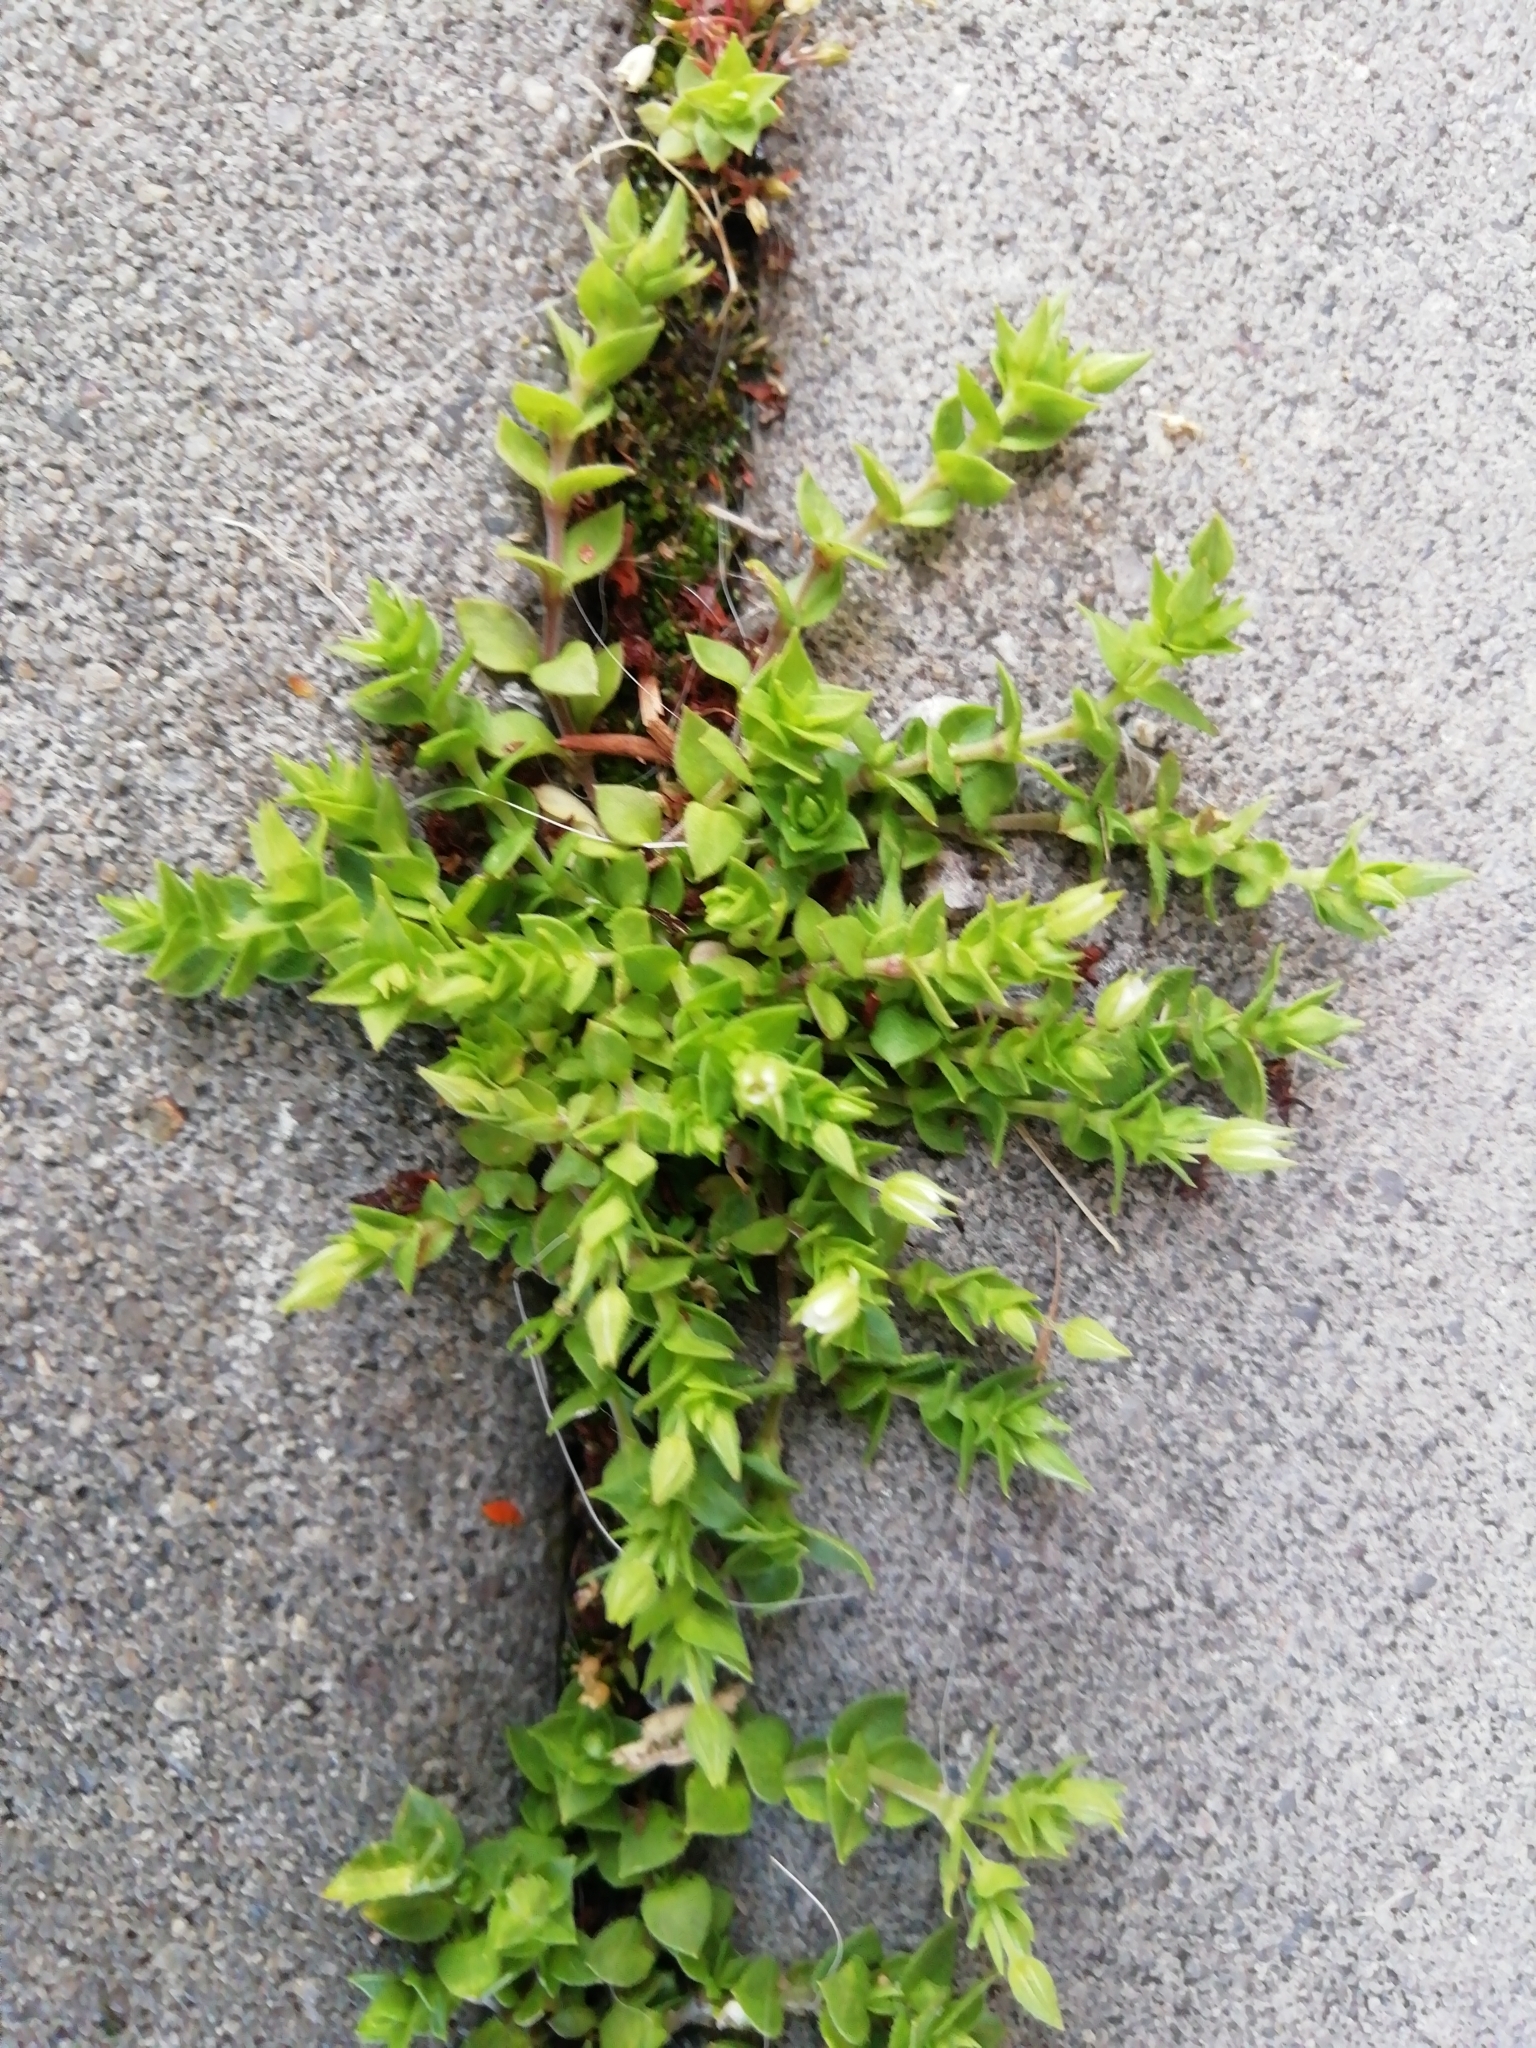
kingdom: Plantae
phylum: Tracheophyta
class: Magnoliopsida
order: Caryophyllales
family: Caryophyllaceae
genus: Arenaria
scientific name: Arenaria serpyllifolia
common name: Thyme-leaved sandwort
